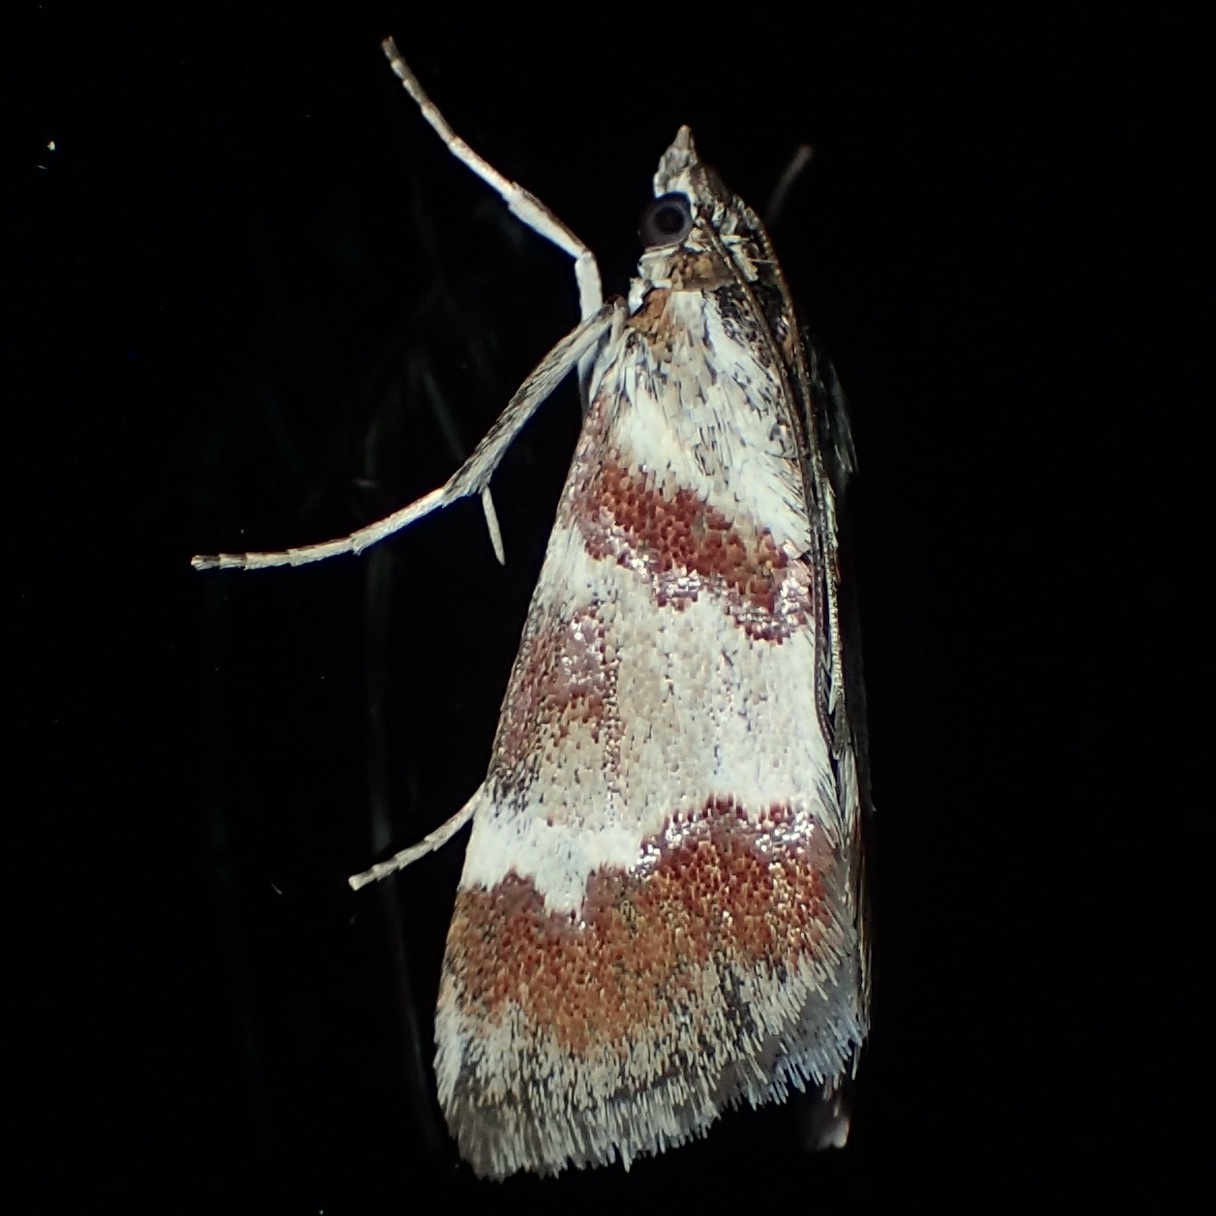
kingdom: Animalia
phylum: Arthropoda
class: Insecta
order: Lepidoptera
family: Crambidae
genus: Noctuelia
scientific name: Noctuelia Mimoschinia rufofascialis
